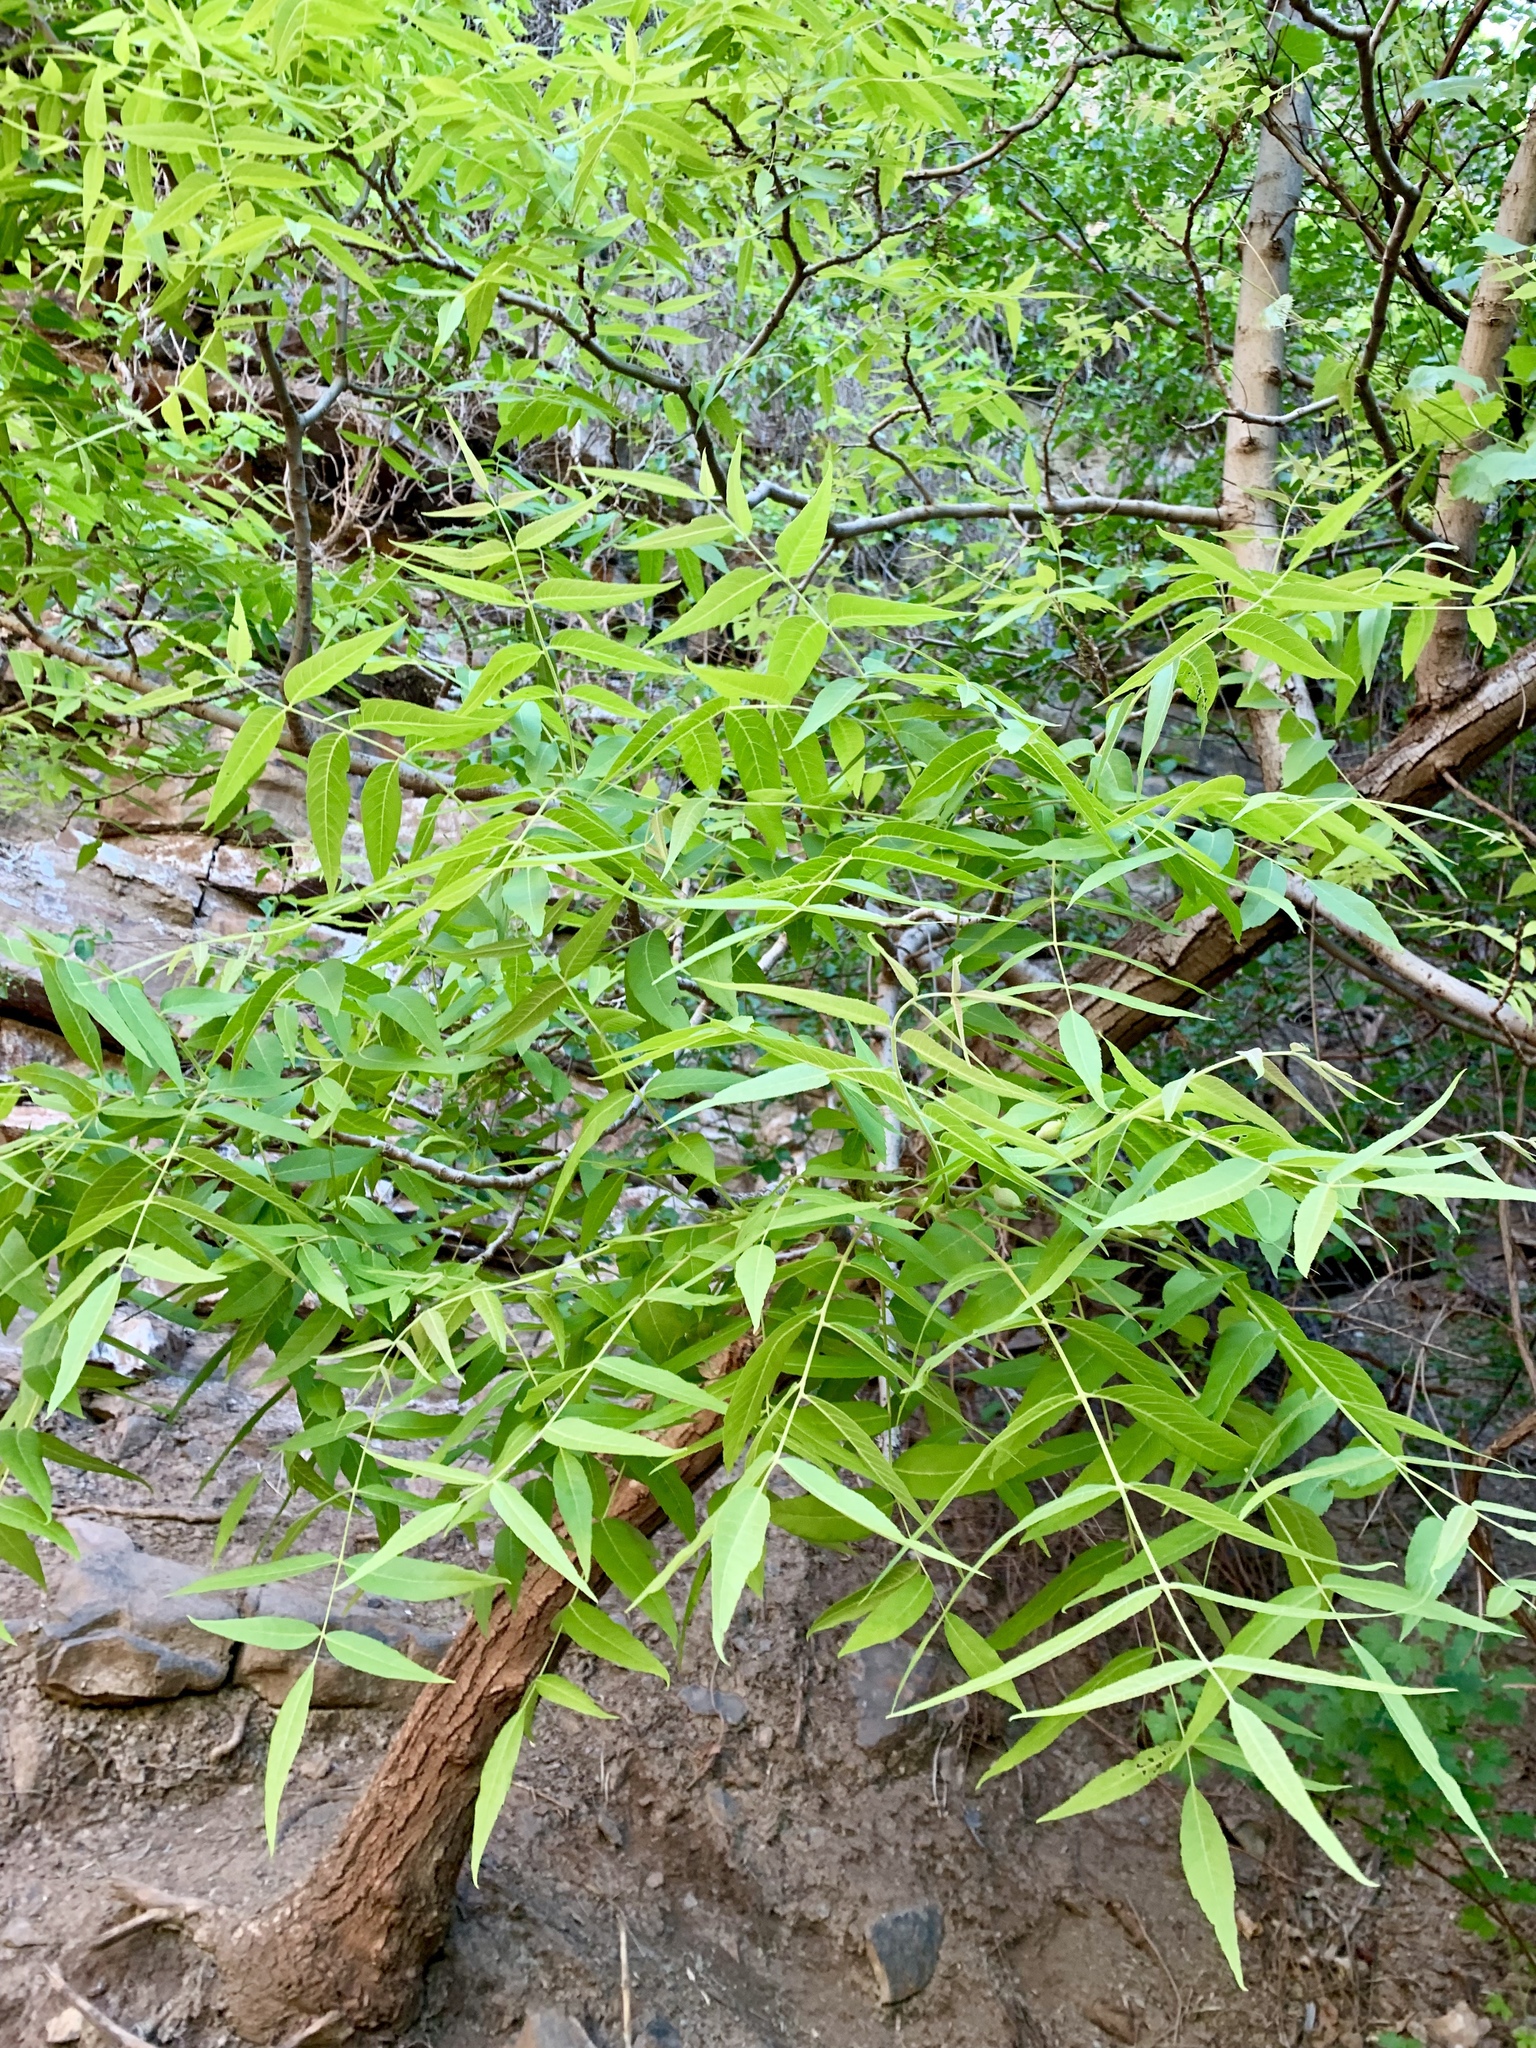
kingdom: Plantae
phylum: Tracheophyta
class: Magnoliopsida
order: Fagales
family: Juglandaceae
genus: Juglans
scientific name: Juglans major
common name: Arizona walnut
